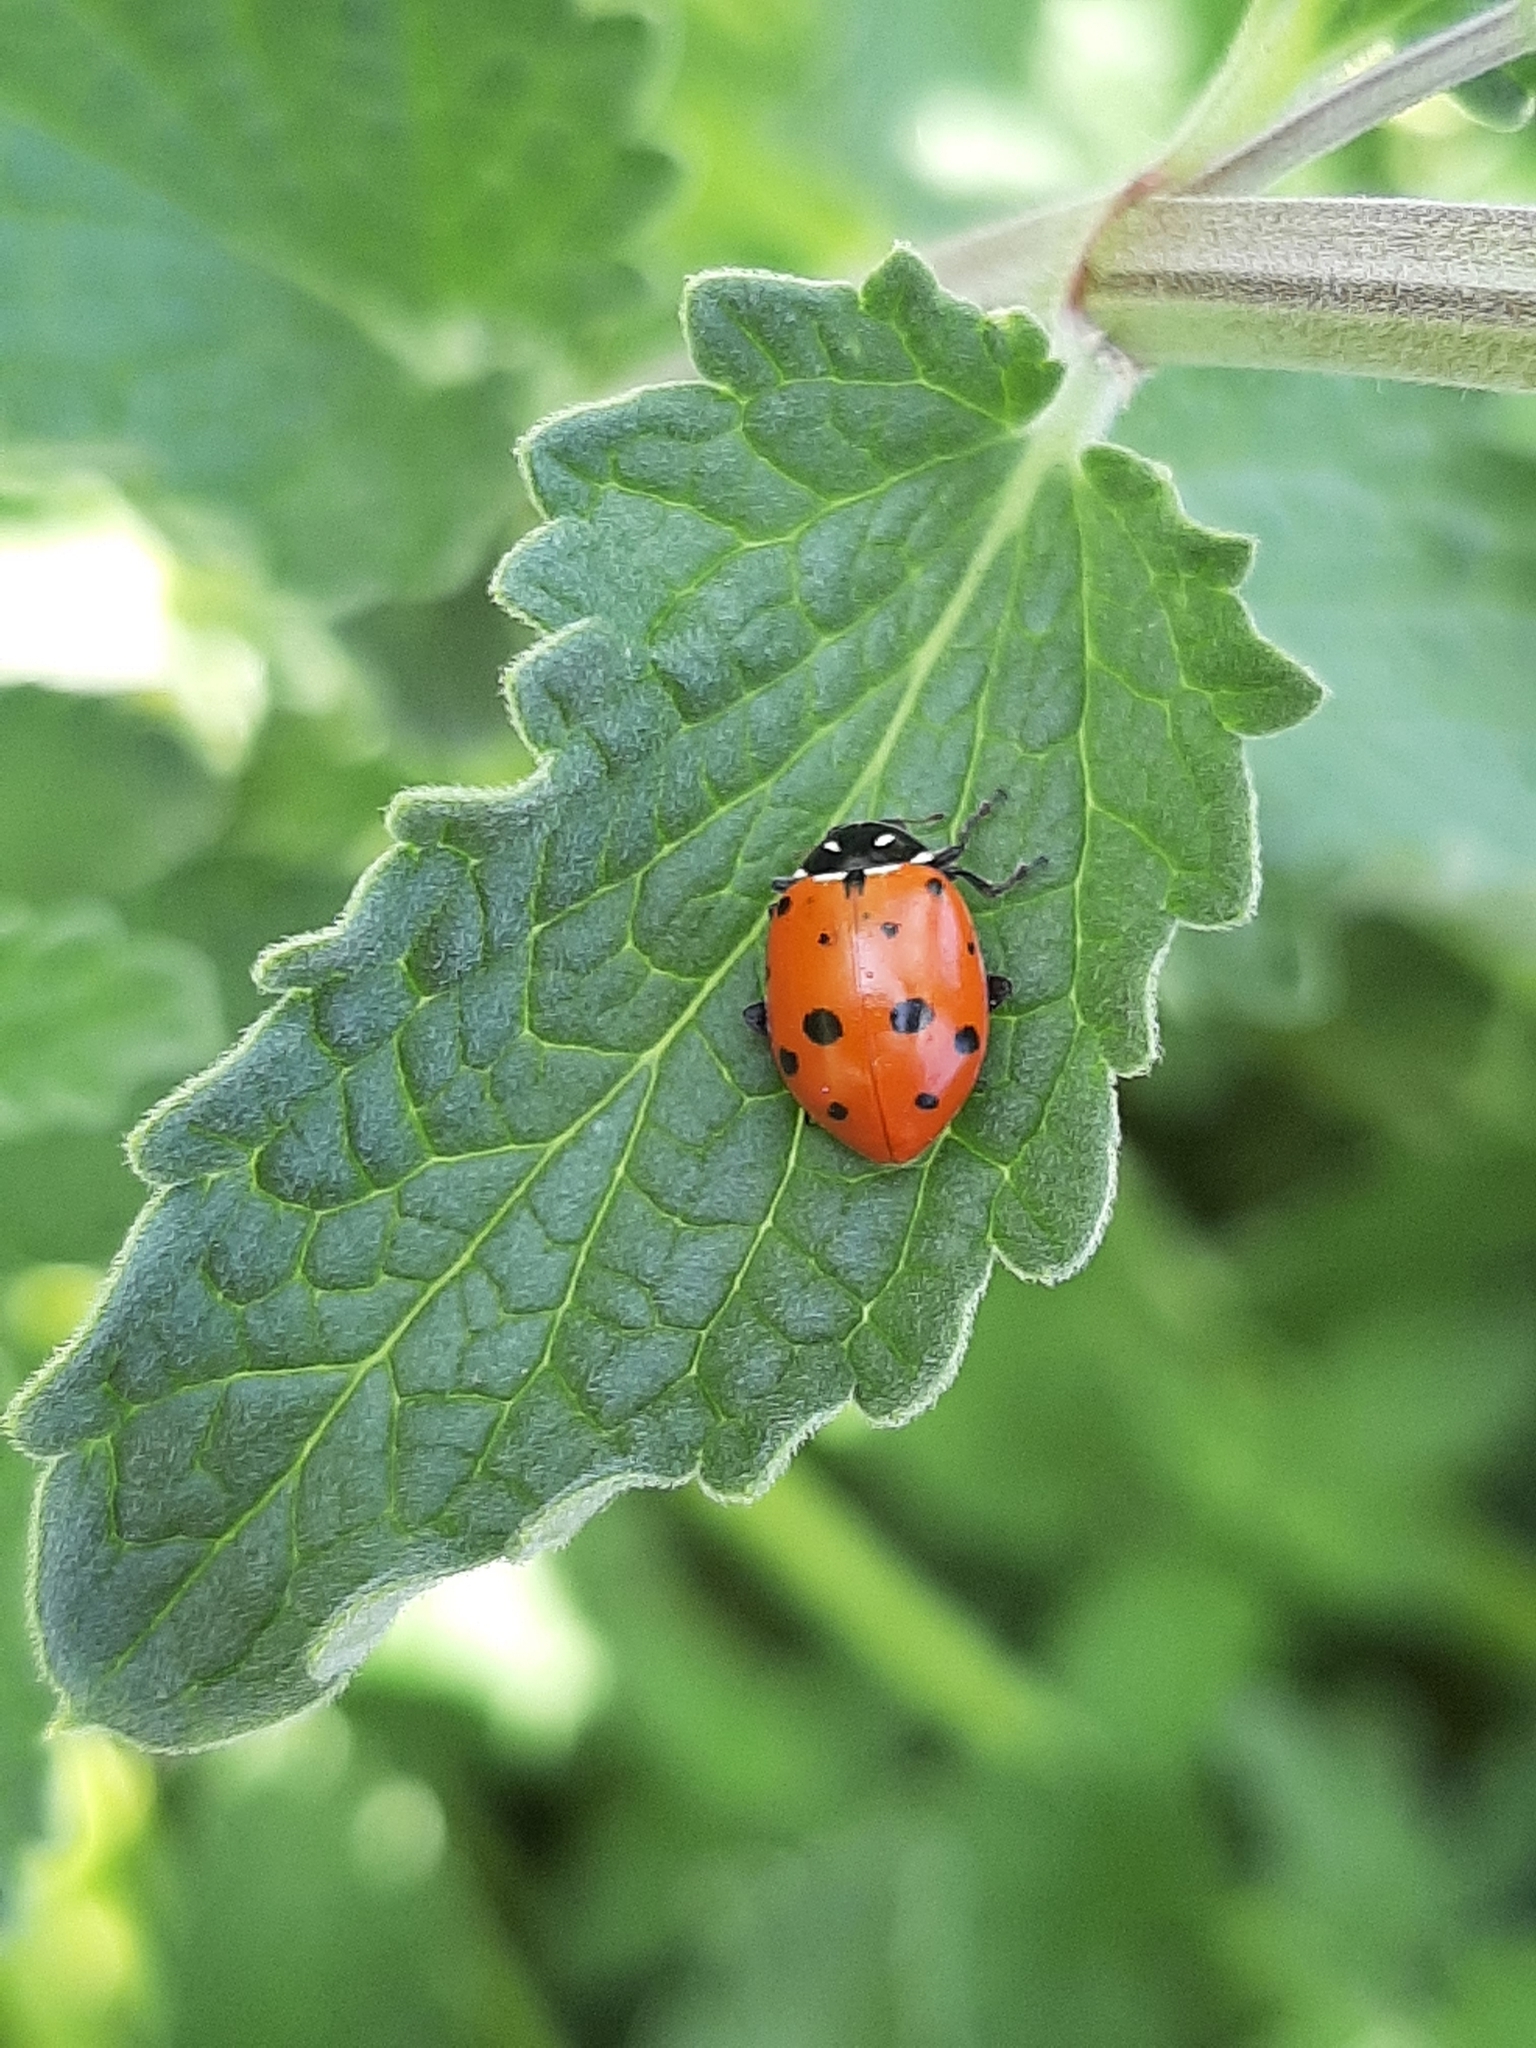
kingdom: Animalia
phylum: Arthropoda
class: Insecta
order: Coleoptera
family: Coccinellidae
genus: Hippodamia
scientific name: Hippodamia convergens
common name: Convergent lady beetle
